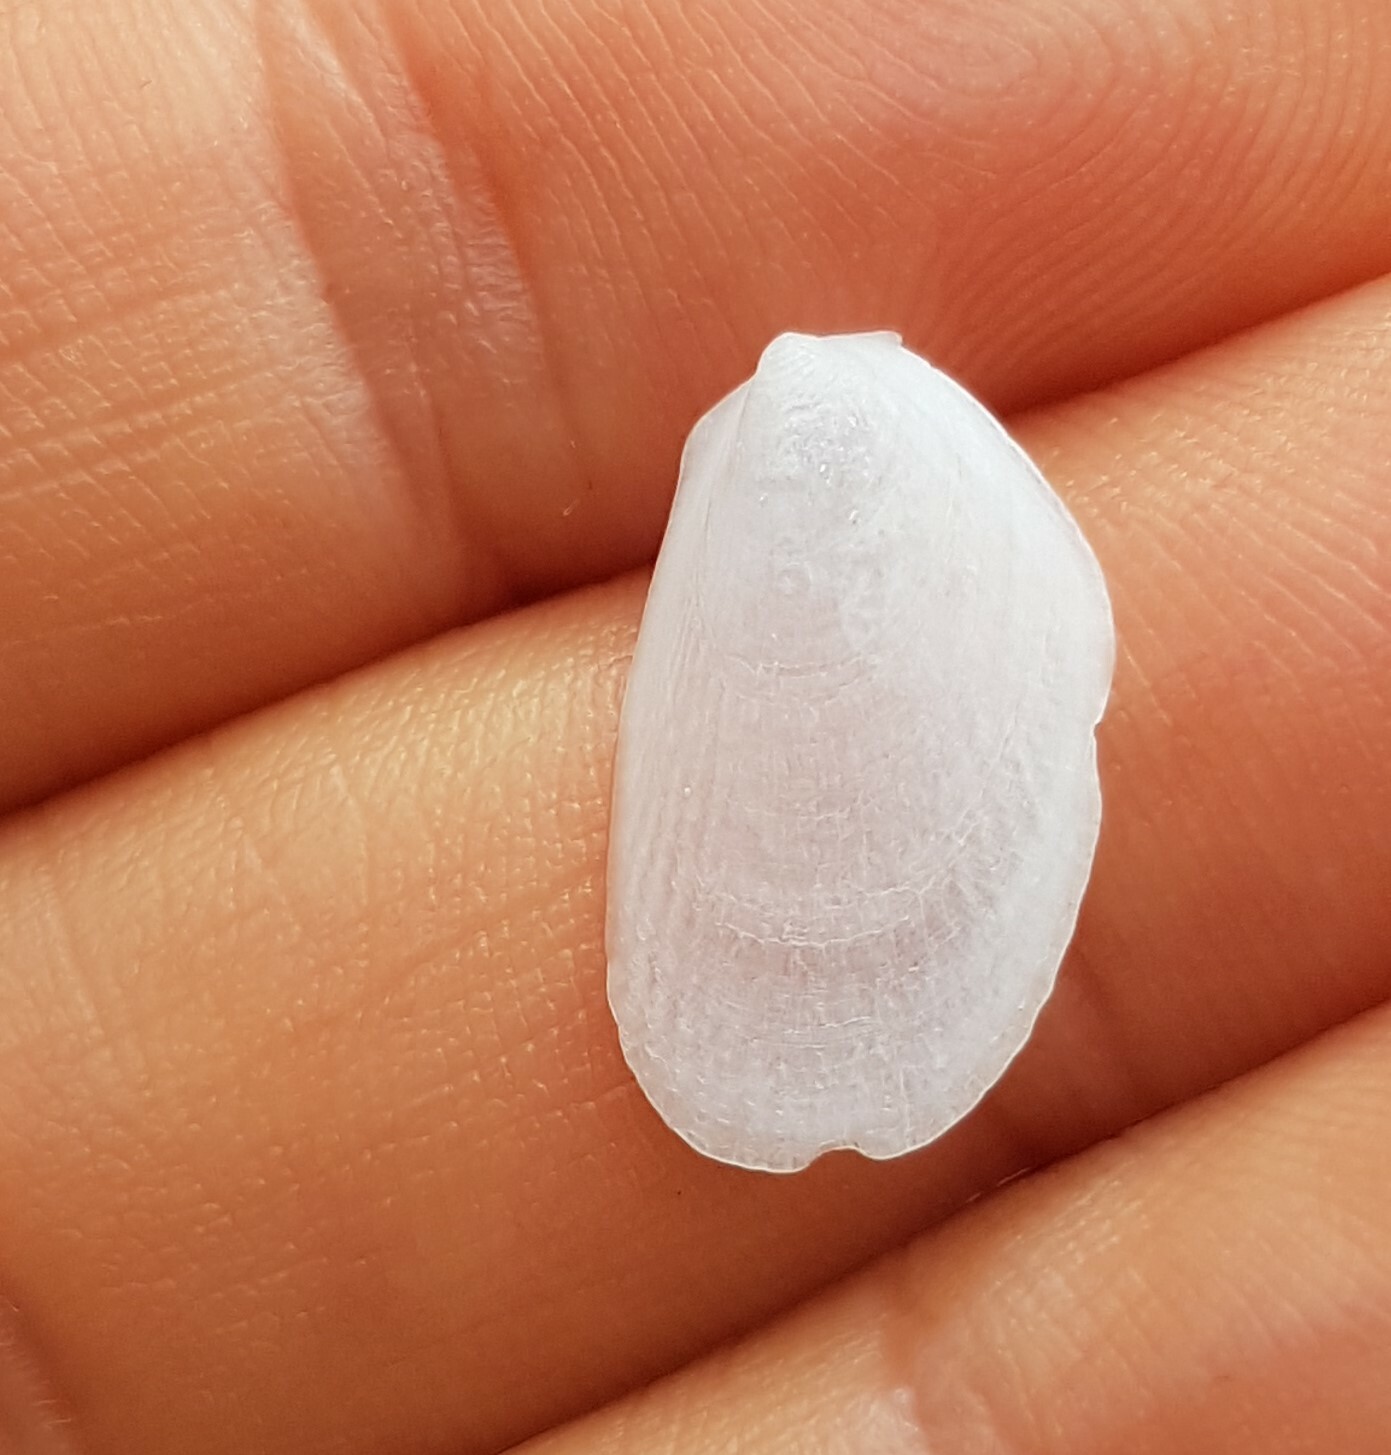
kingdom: Animalia
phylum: Mollusca
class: Bivalvia
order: Limida
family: Limidae
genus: Limaria
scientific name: Limaria hians
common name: Gaping file shale
